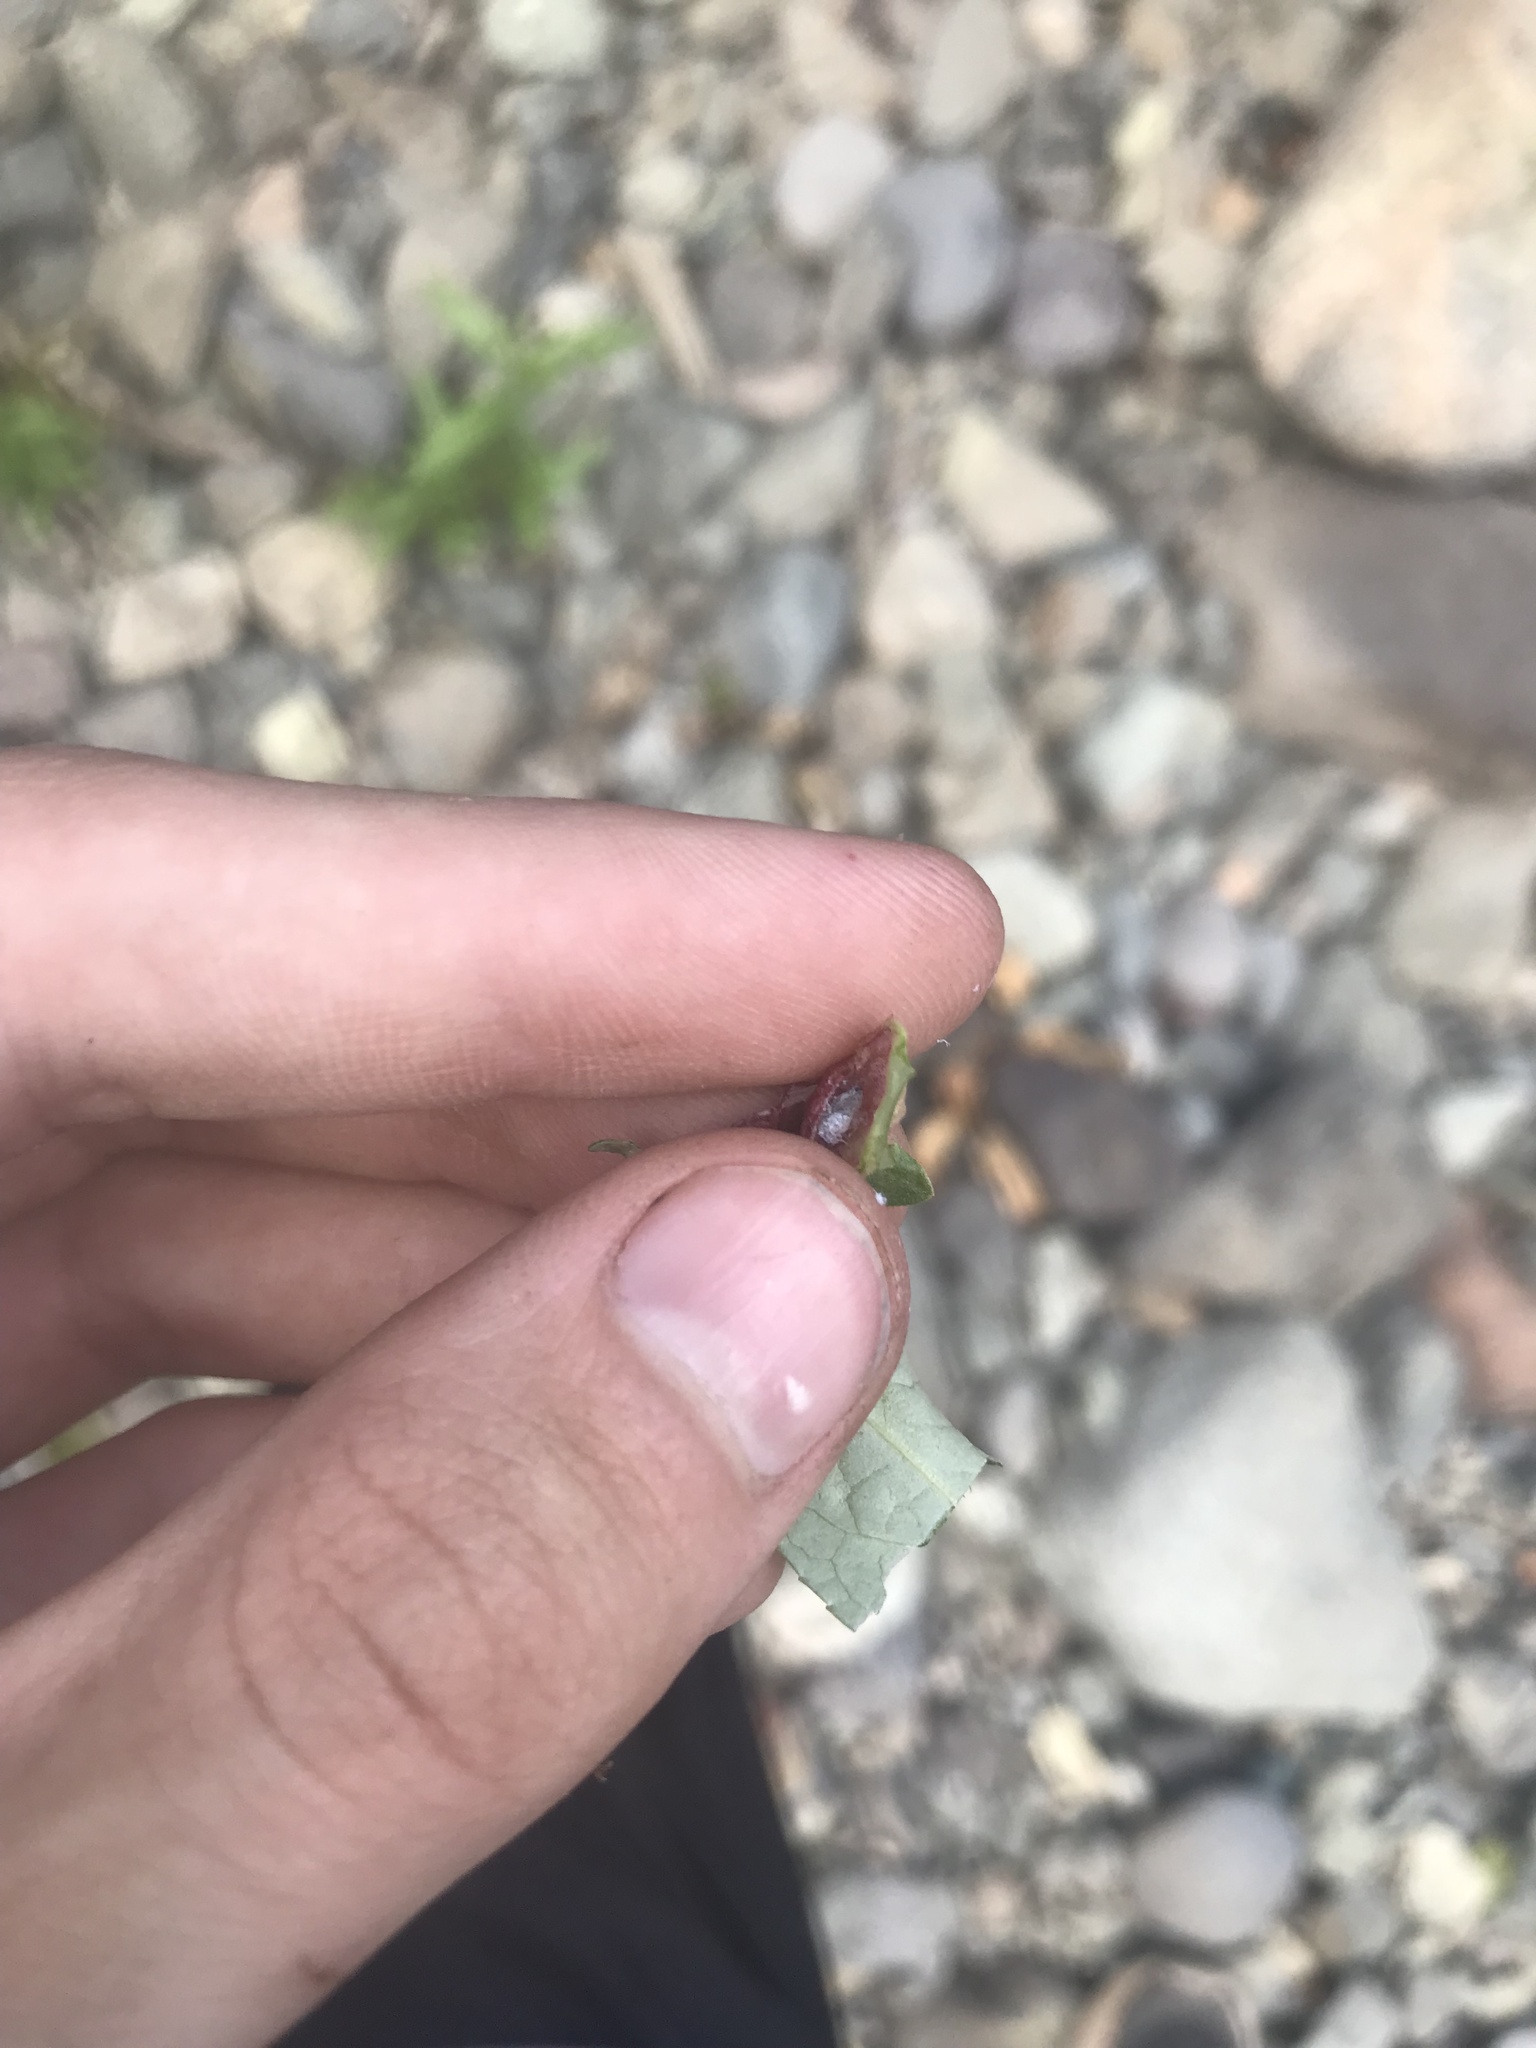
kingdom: Animalia
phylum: Arthropoda
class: Insecta
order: Hemiptera
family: Aphididae
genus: Thecabius
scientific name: Thecabius populimonilis
